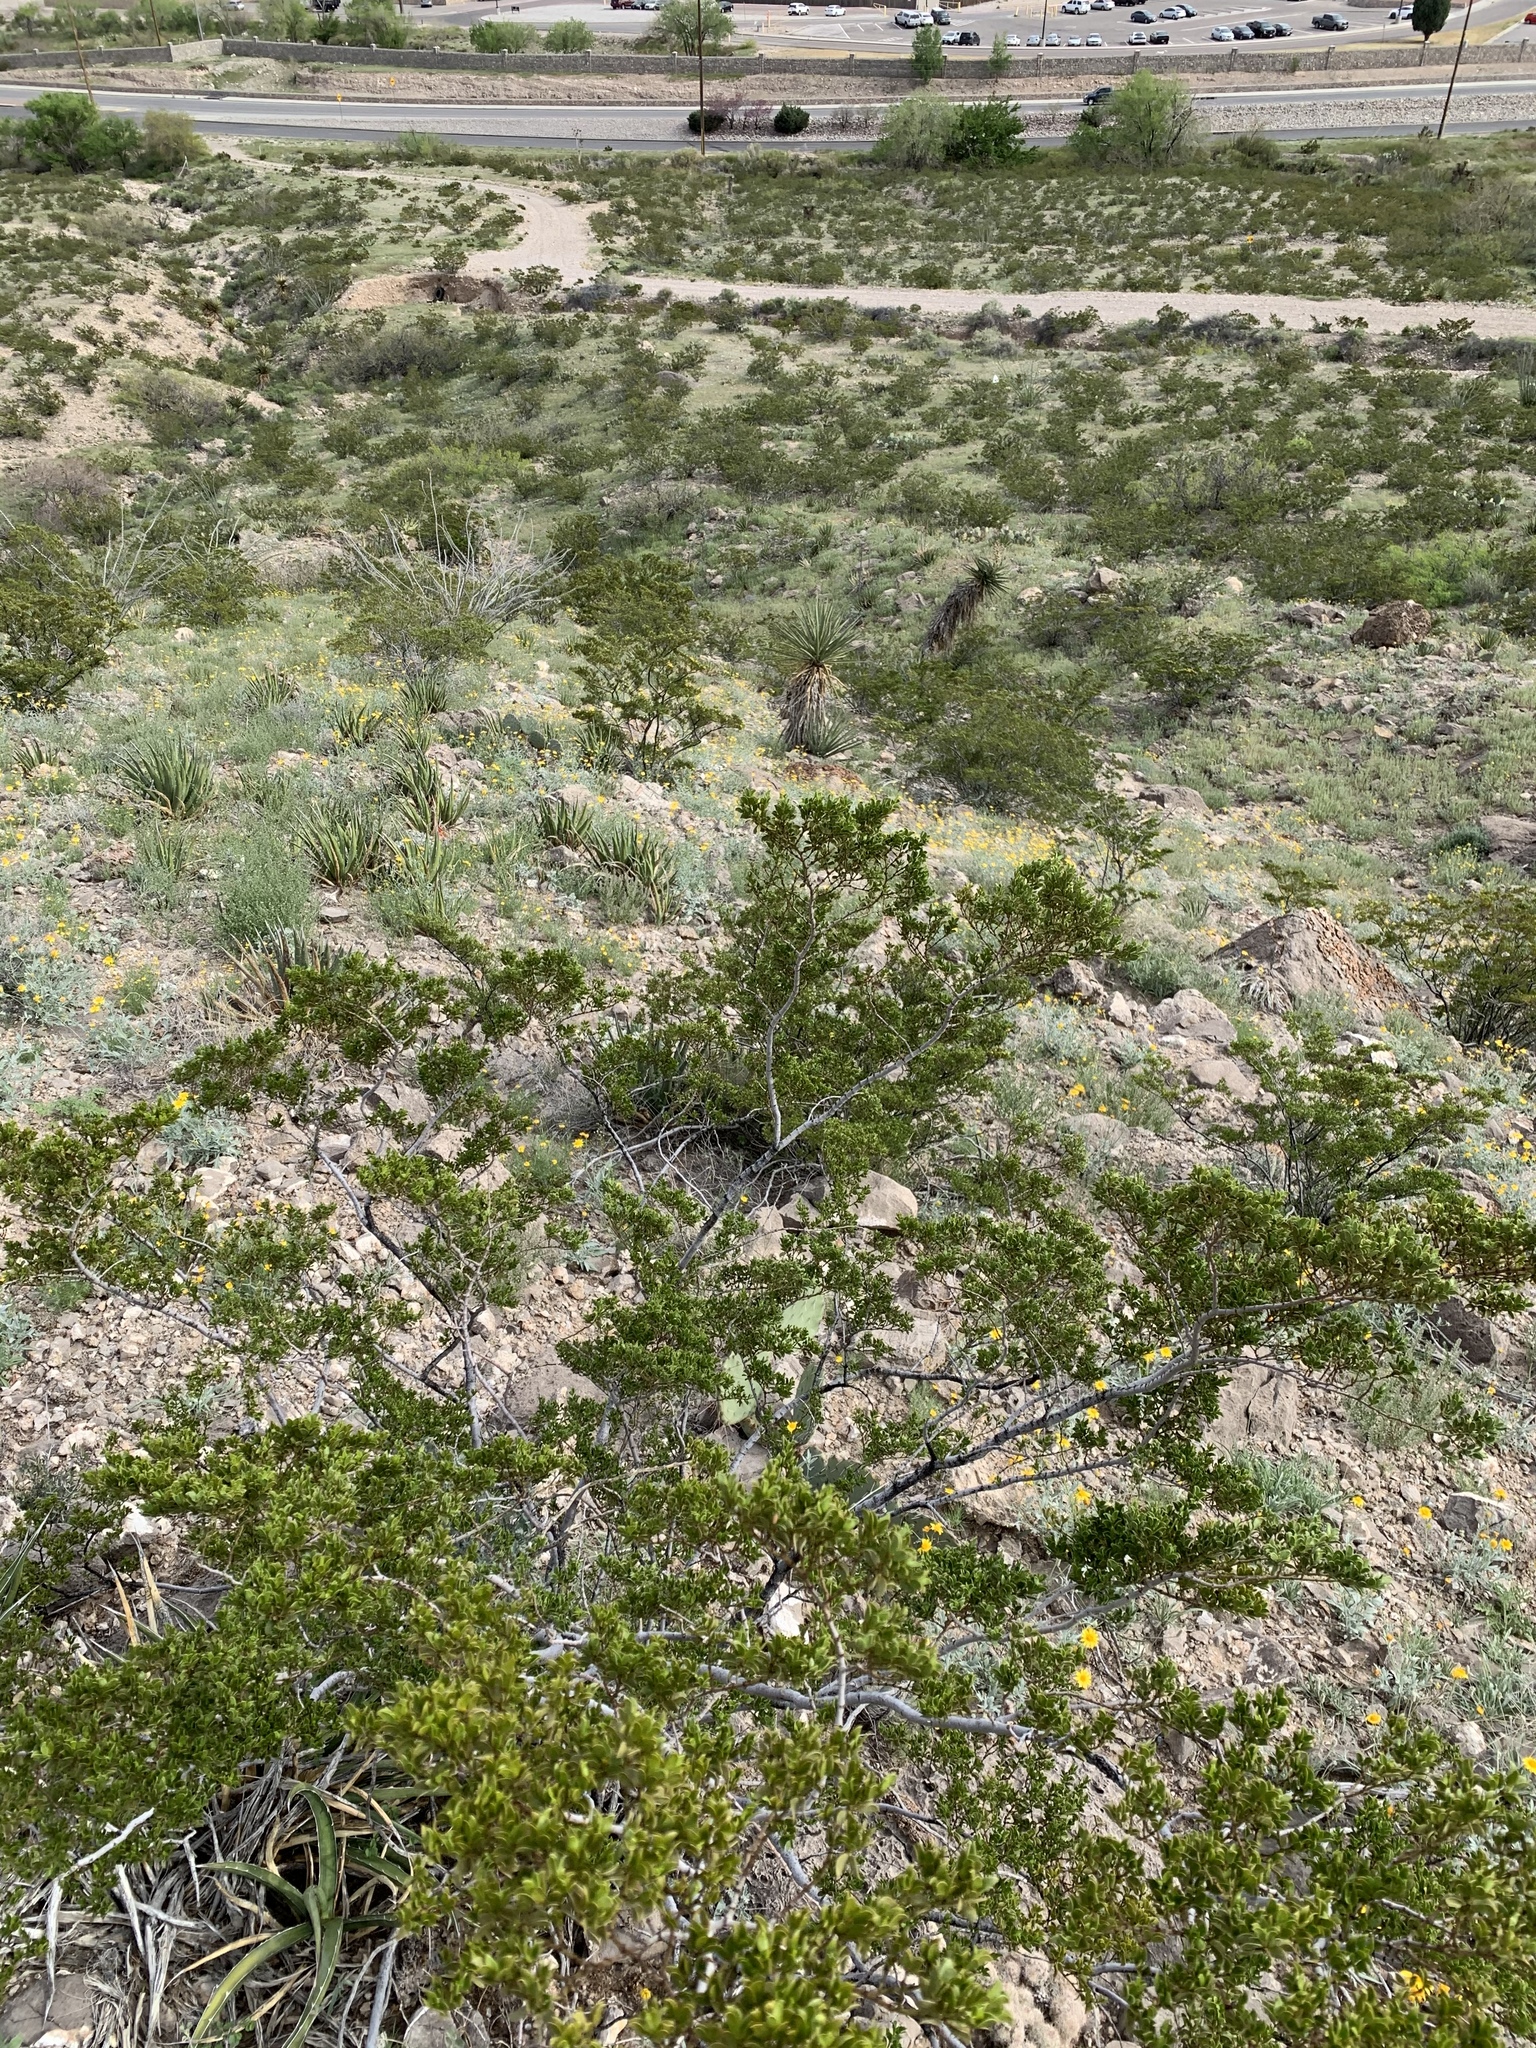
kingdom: Plantae
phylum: Tracheophyta
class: Magnoliopsida
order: Zygophyllales
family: Zygophyllaceae
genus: Larrea
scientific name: Larrea tridentata
